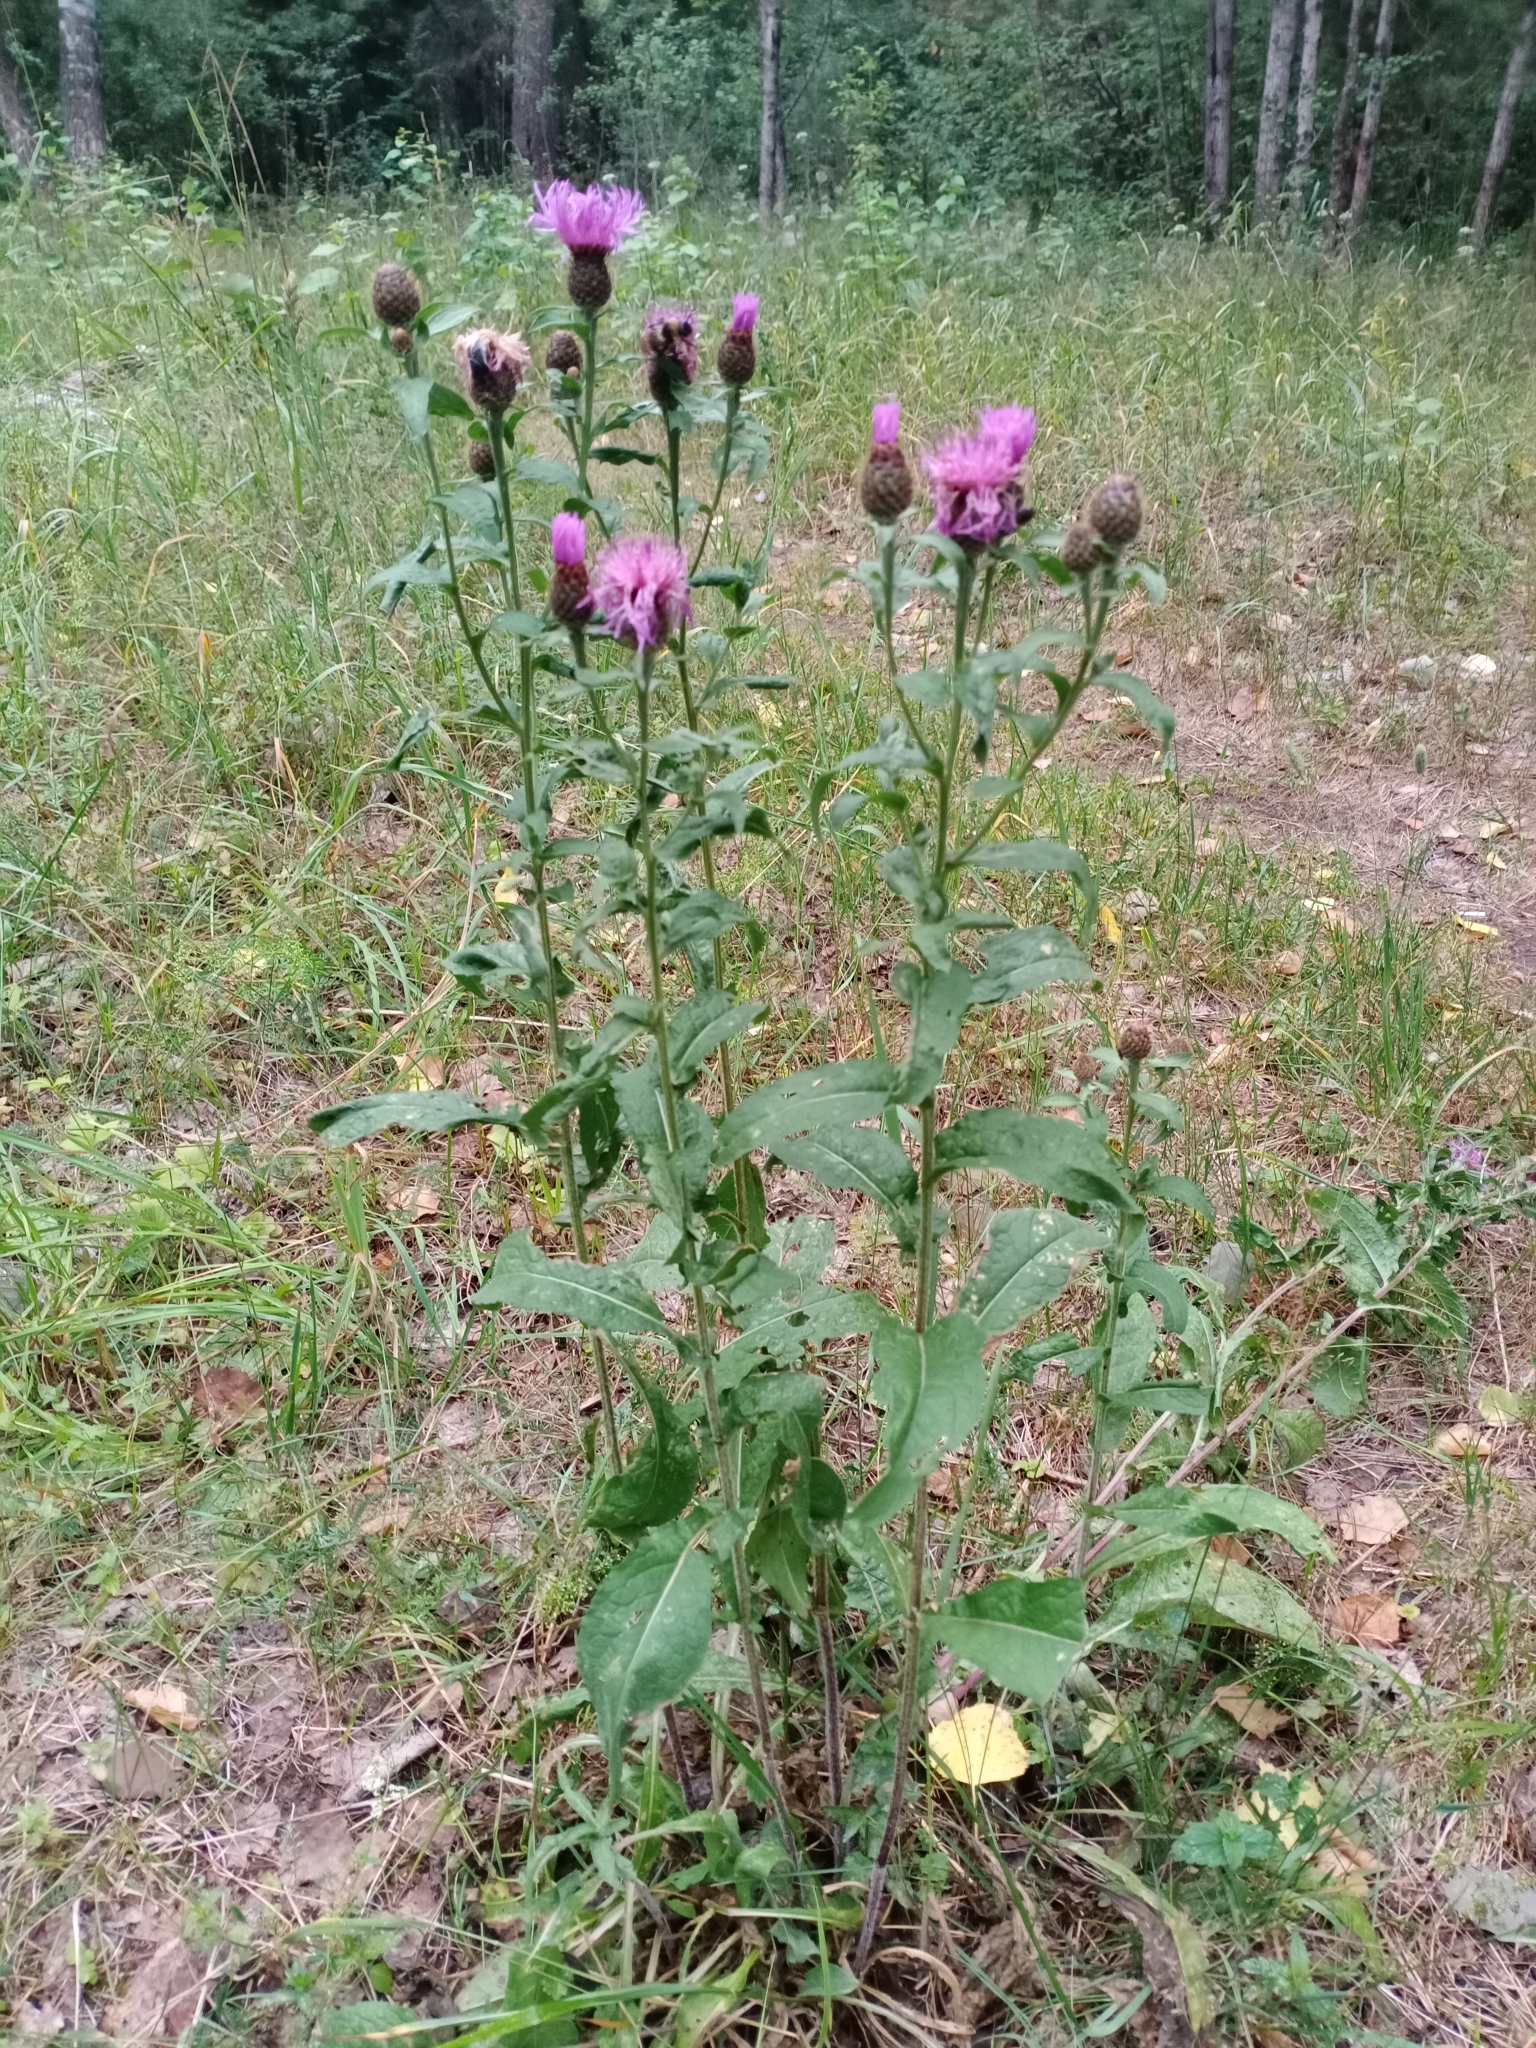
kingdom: Plantae
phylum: Tracheophyta
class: Magnoliopsida
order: Asterales
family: Asteraceae
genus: Centaurea
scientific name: Centaurea phrygia
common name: Wig knapweed
